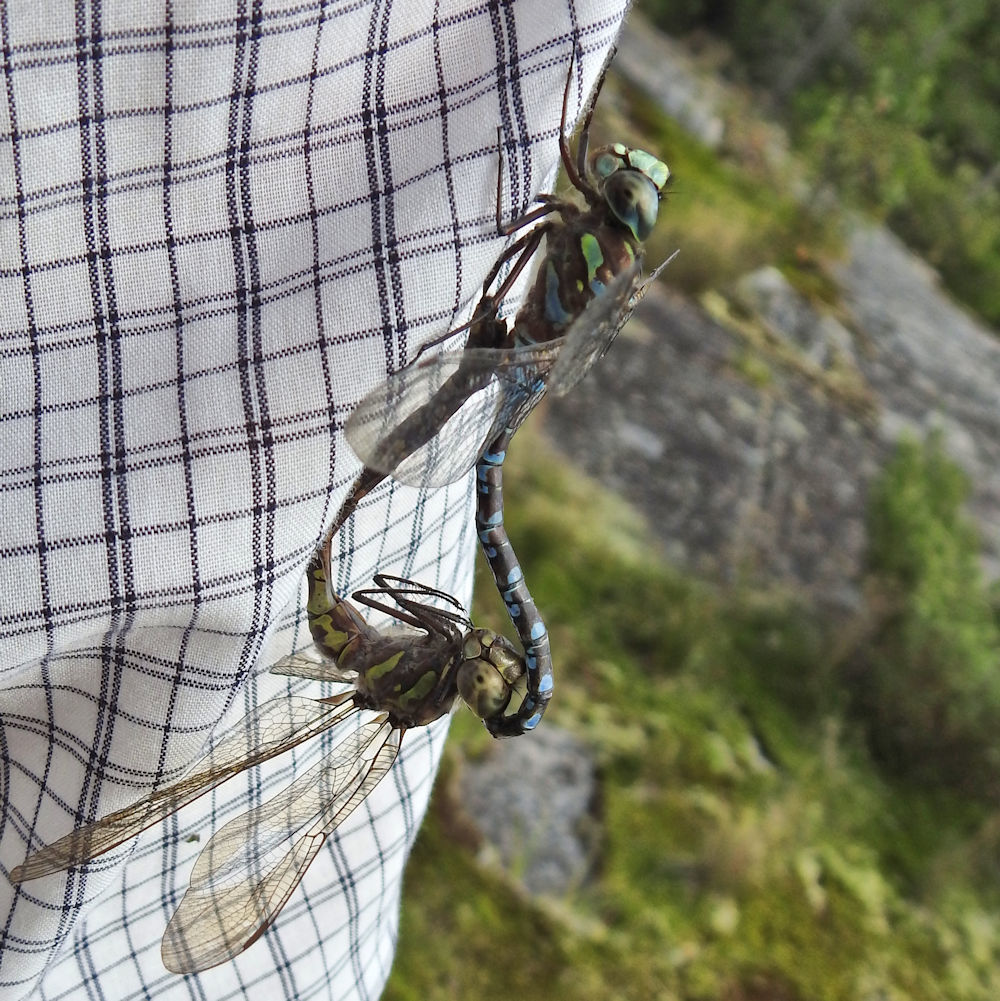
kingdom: Animalia
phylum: Arthropoda
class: Insecta
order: Odonata
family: Aeshnidae
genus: Aeshna
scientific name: Aeshna canadensis
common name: Canada darner
